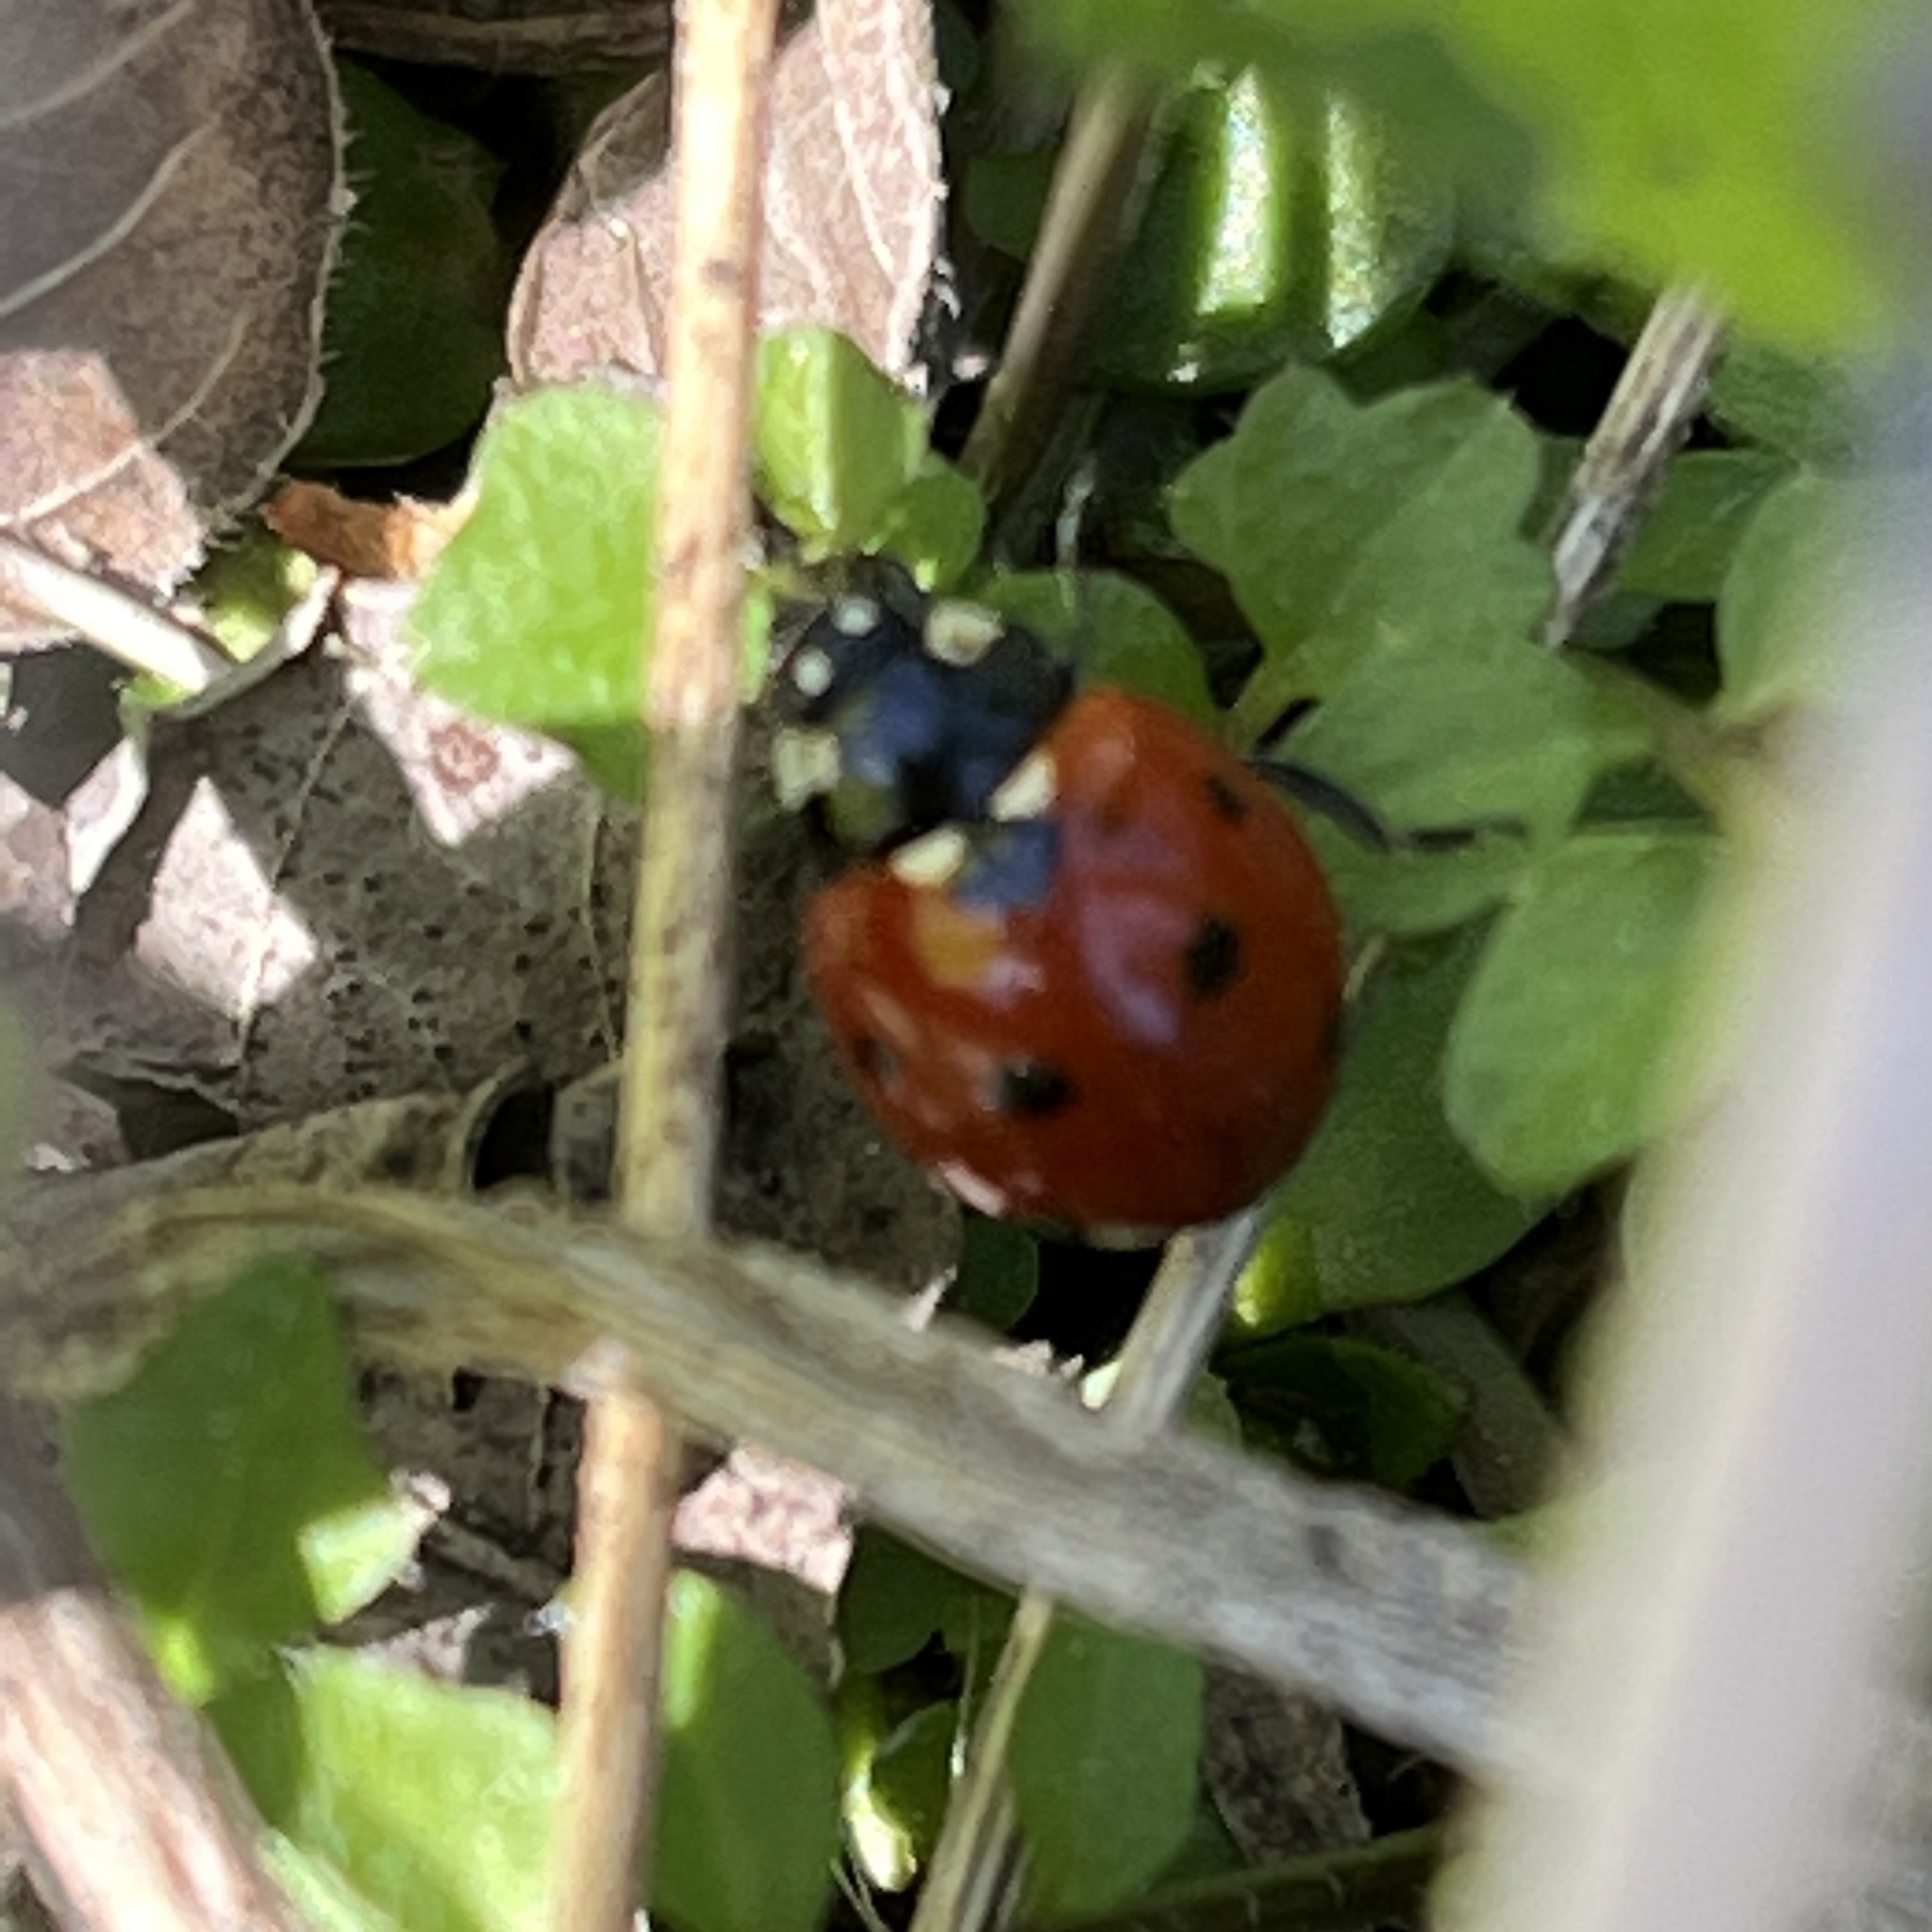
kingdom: Animalia
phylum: Arthropoda
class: Insecta
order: Coleoptera
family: Coccinellidae
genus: Coccinella
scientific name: Coccinella septempunctata
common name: Sevenspotted lady beetle
